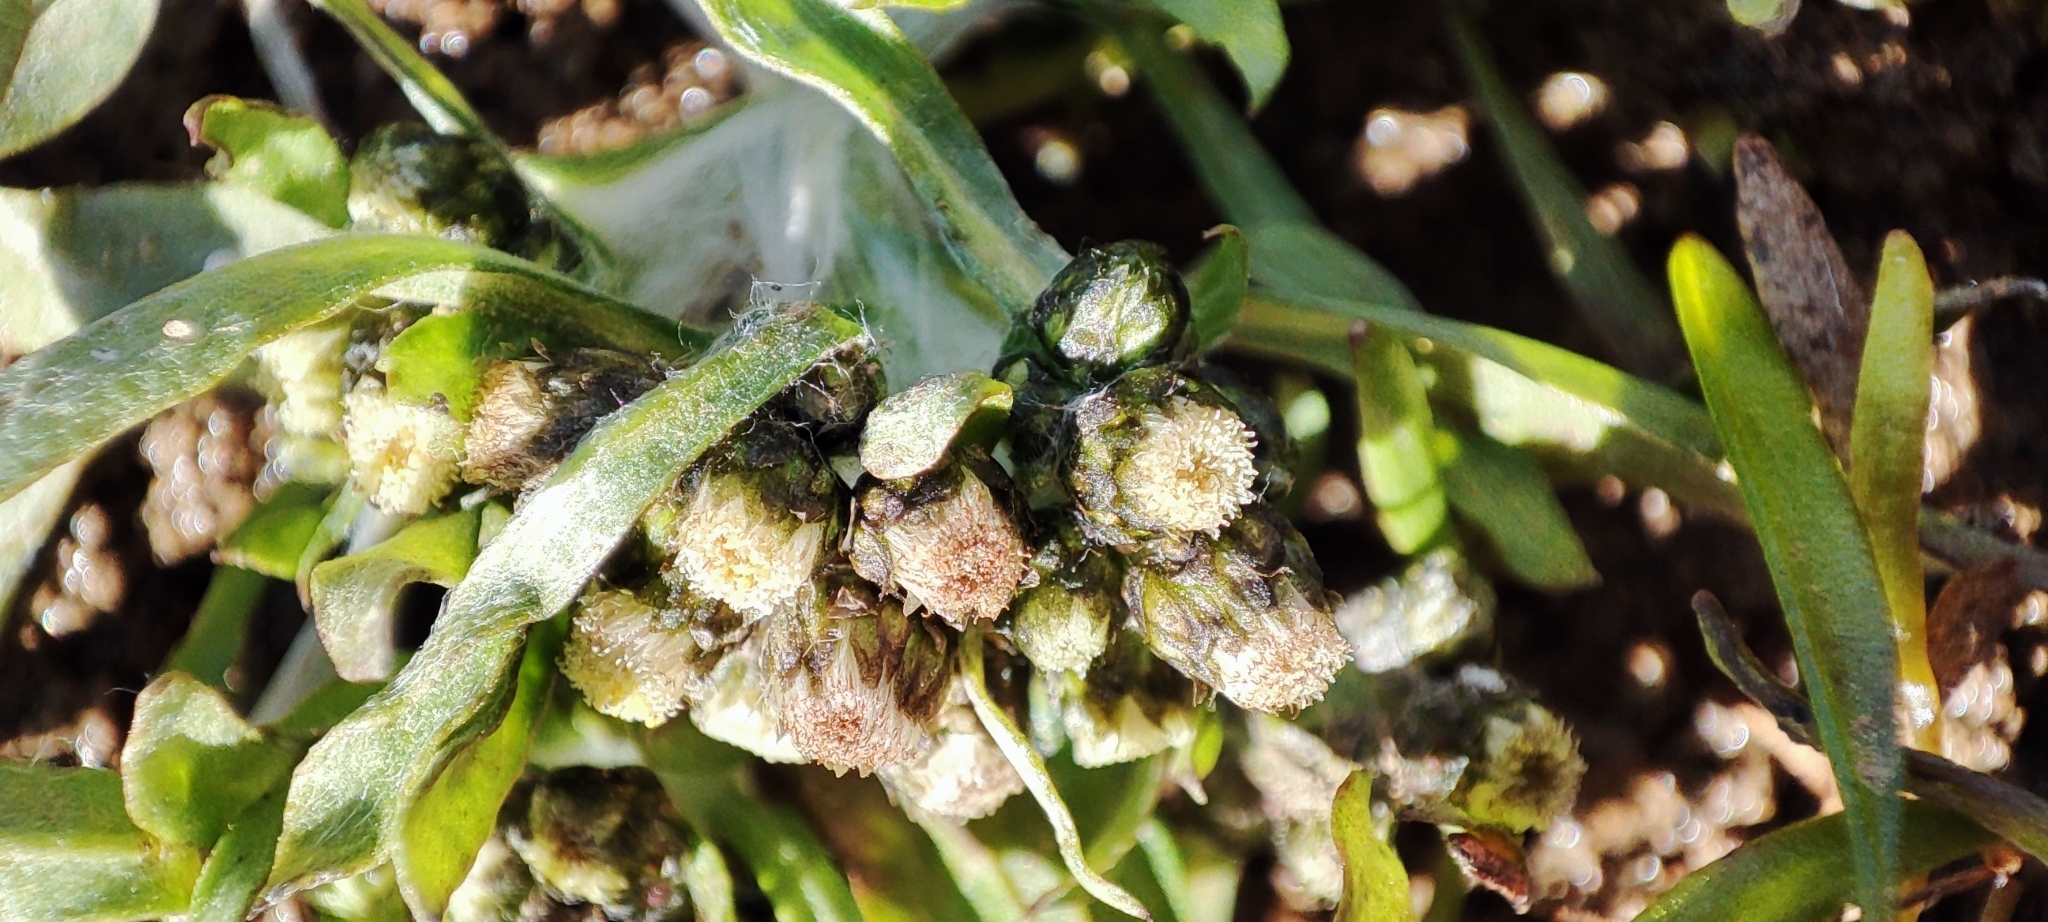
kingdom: Plantae
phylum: Tracheophyta
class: Magnoliopsida
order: Asterales
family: Asteraceae
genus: Gnaphalium
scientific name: Gnaphalium uliginosum
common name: Marsh cudweed
